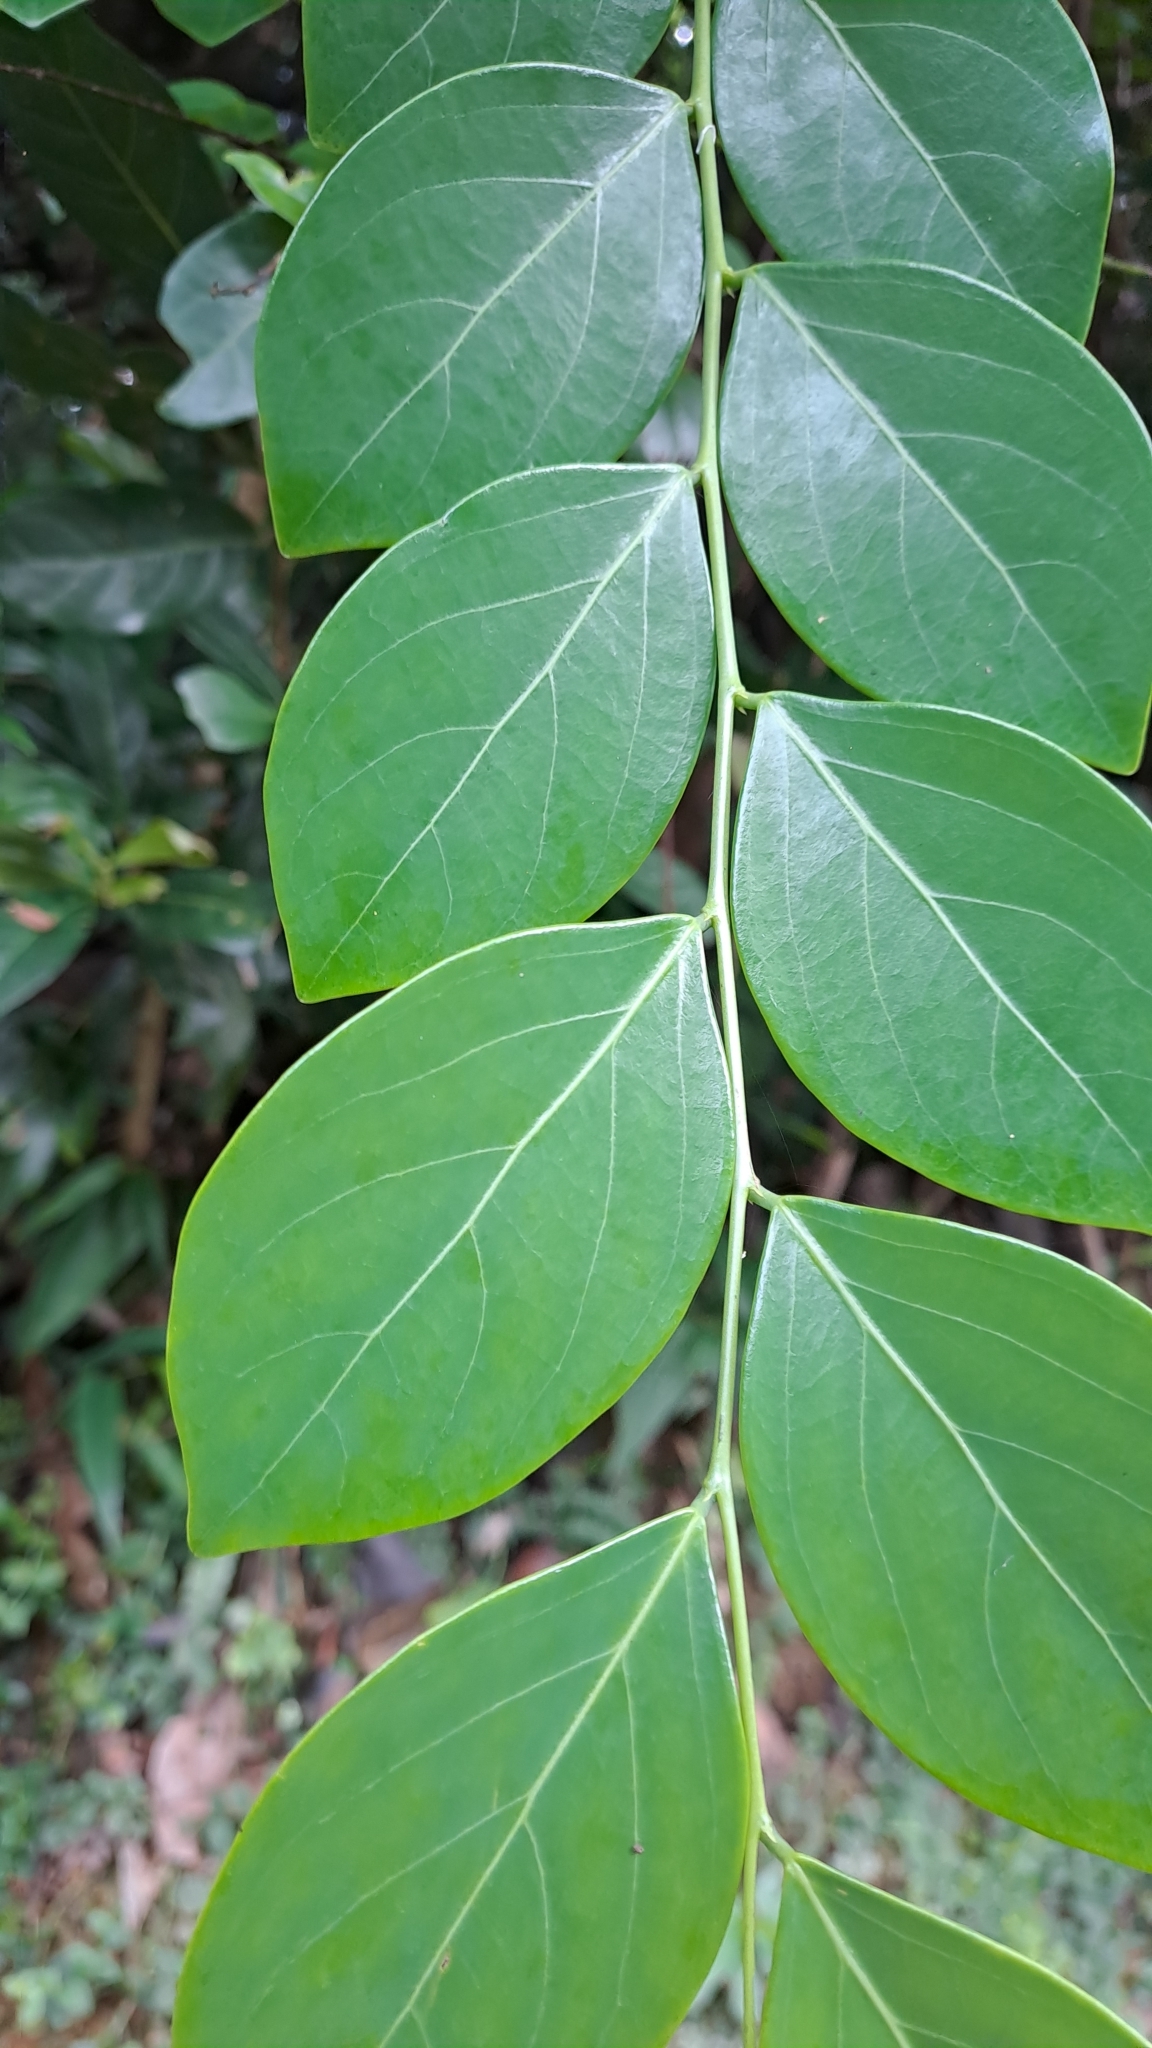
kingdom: Plantae
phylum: Tracheophyta
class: Magnoliopsida
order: Malpighiales
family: Phyllanthaceae
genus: Breynia
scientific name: Breynia fruticosa
